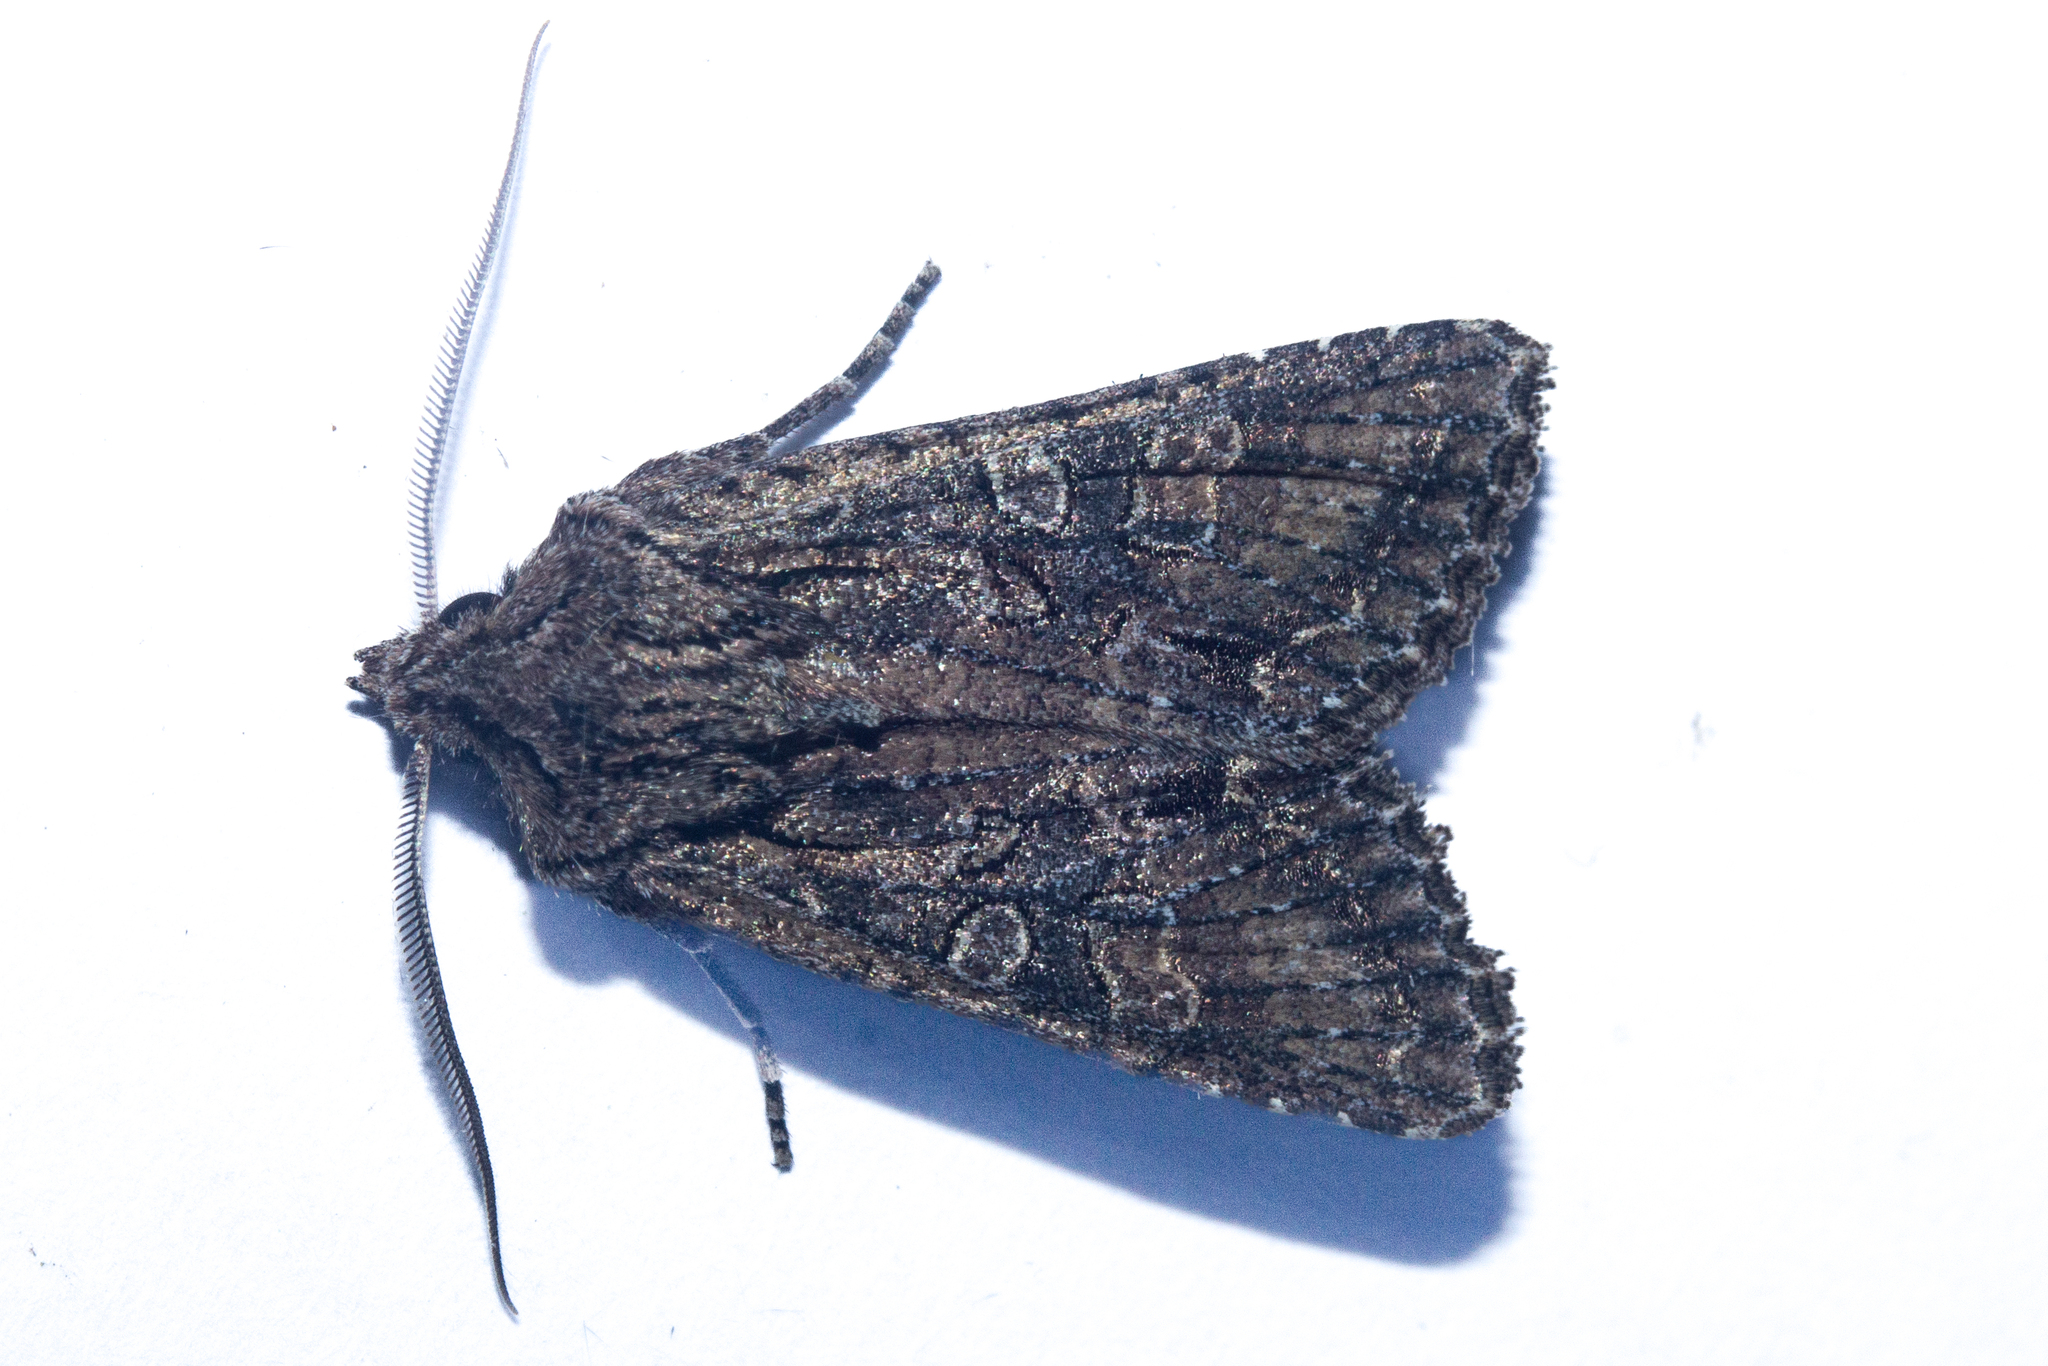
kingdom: Animalia
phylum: Arthropoda
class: Insecta
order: Lepidoptera
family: Noctuidae
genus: Ichneutica
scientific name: Ichneutica mutans
